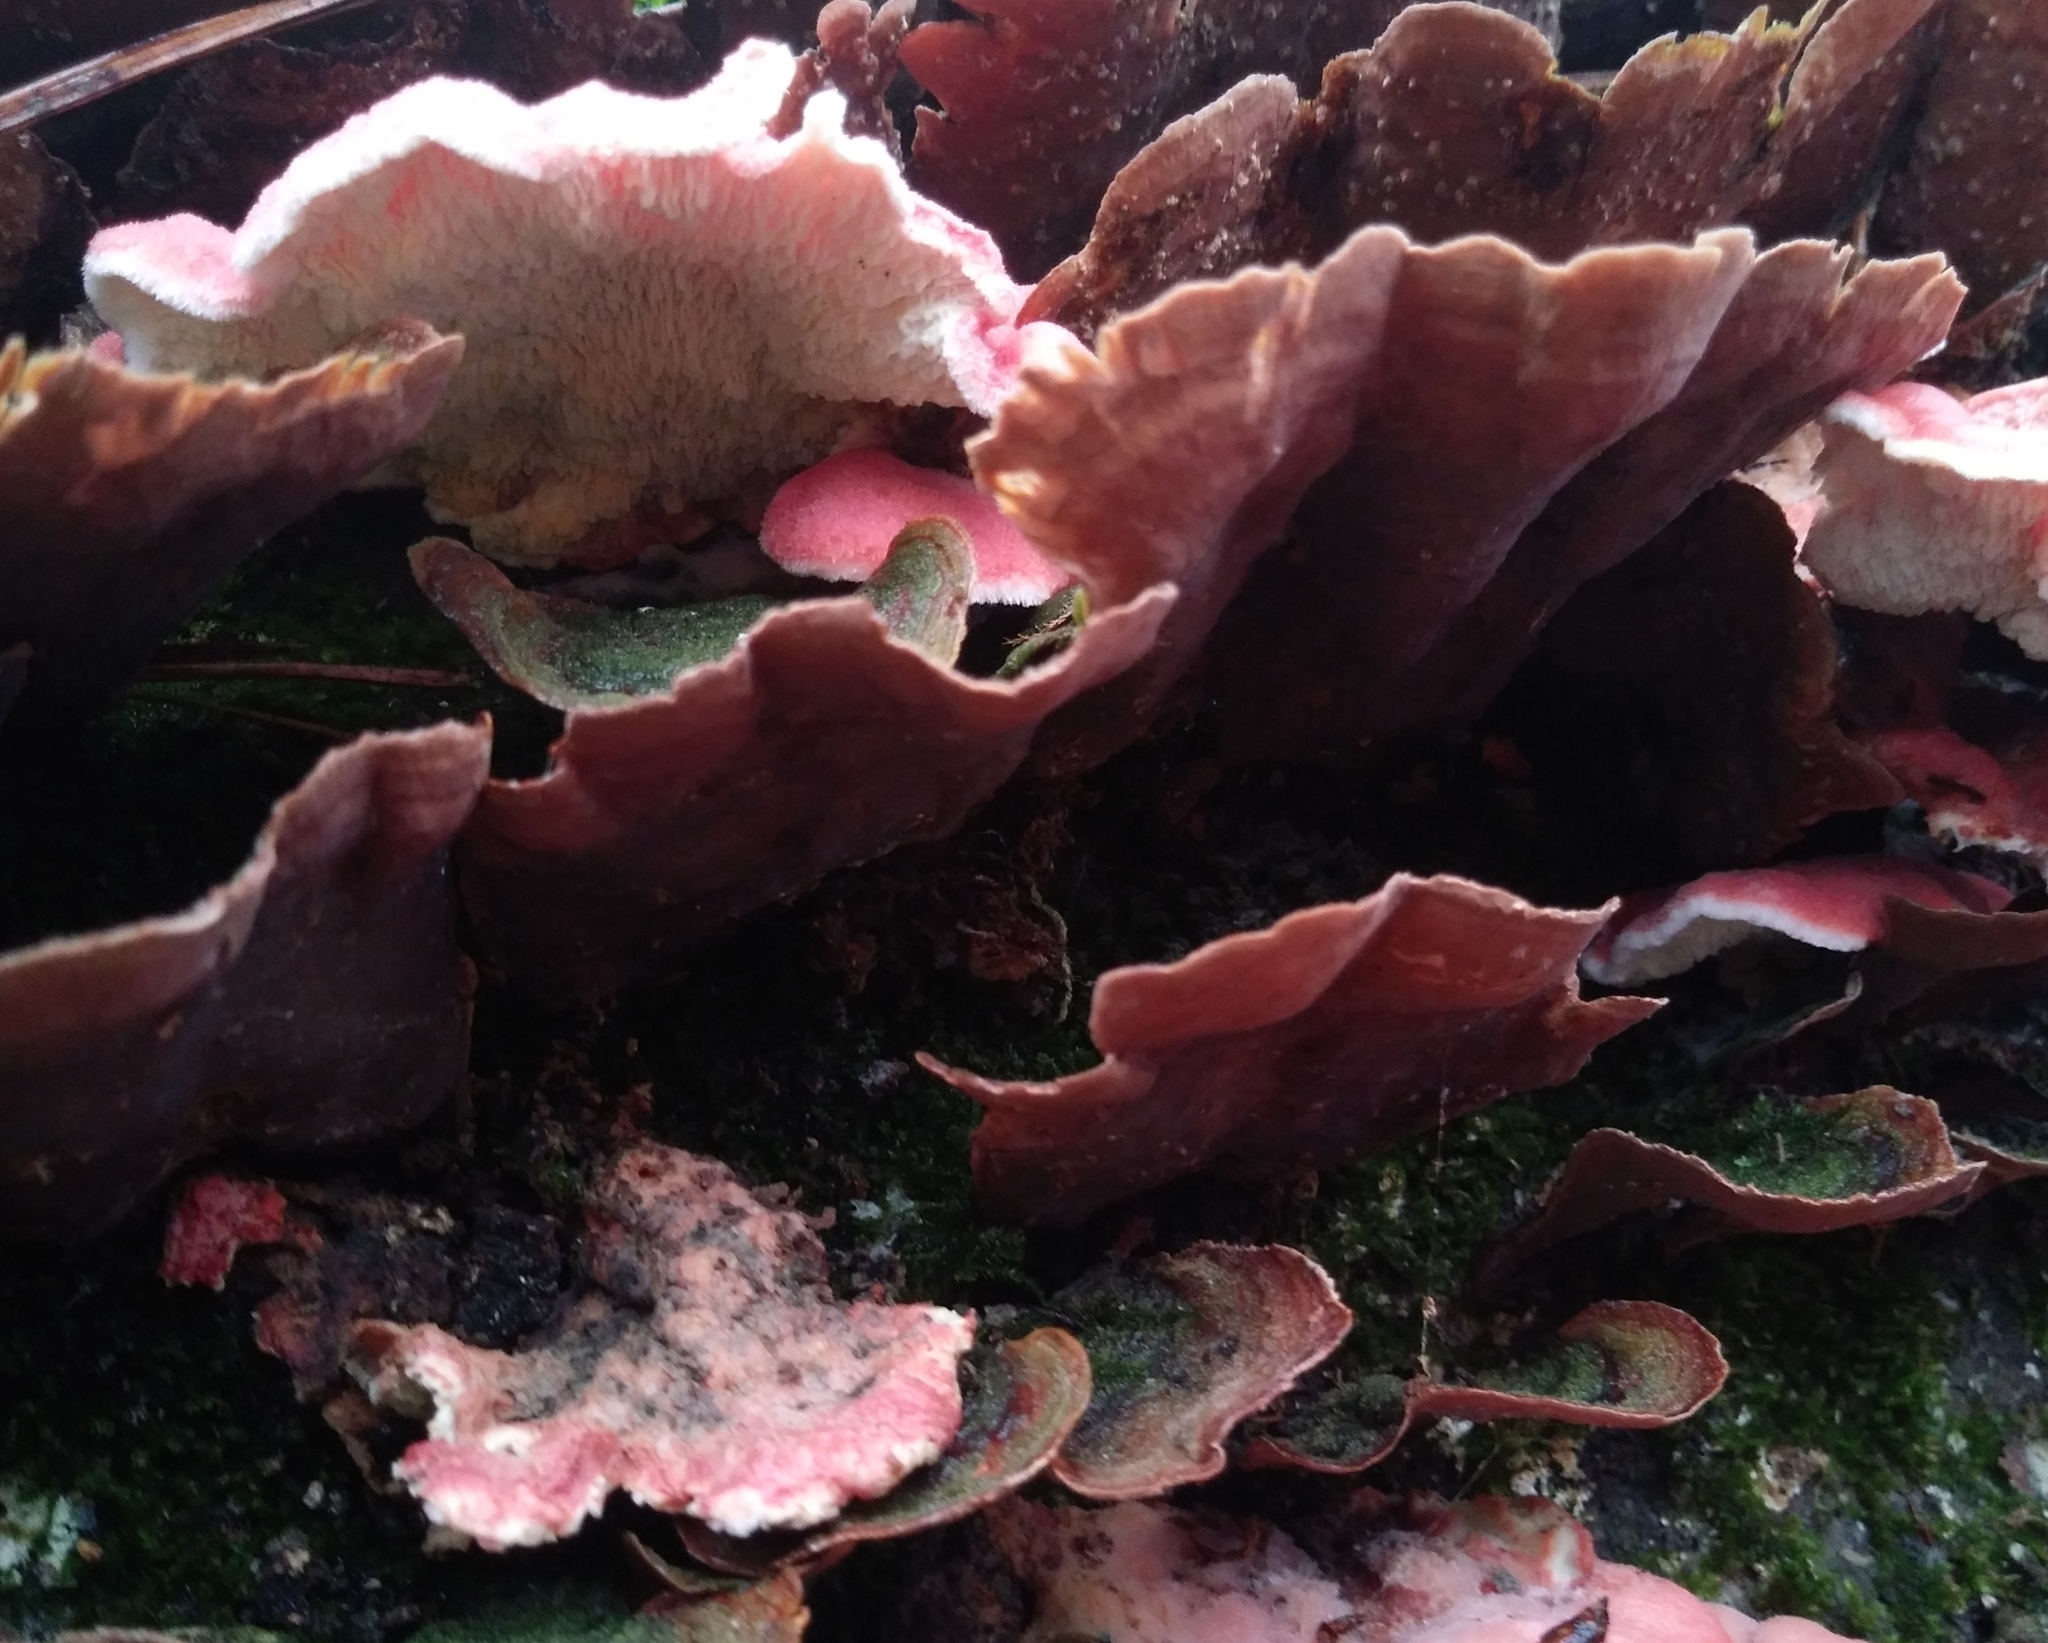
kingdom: Fungi
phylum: Basidiomycota
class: Agaricomycetes
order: Polyporales
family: Irpicaceae
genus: Byssomerulius
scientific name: Byssomerulius incarnatus
